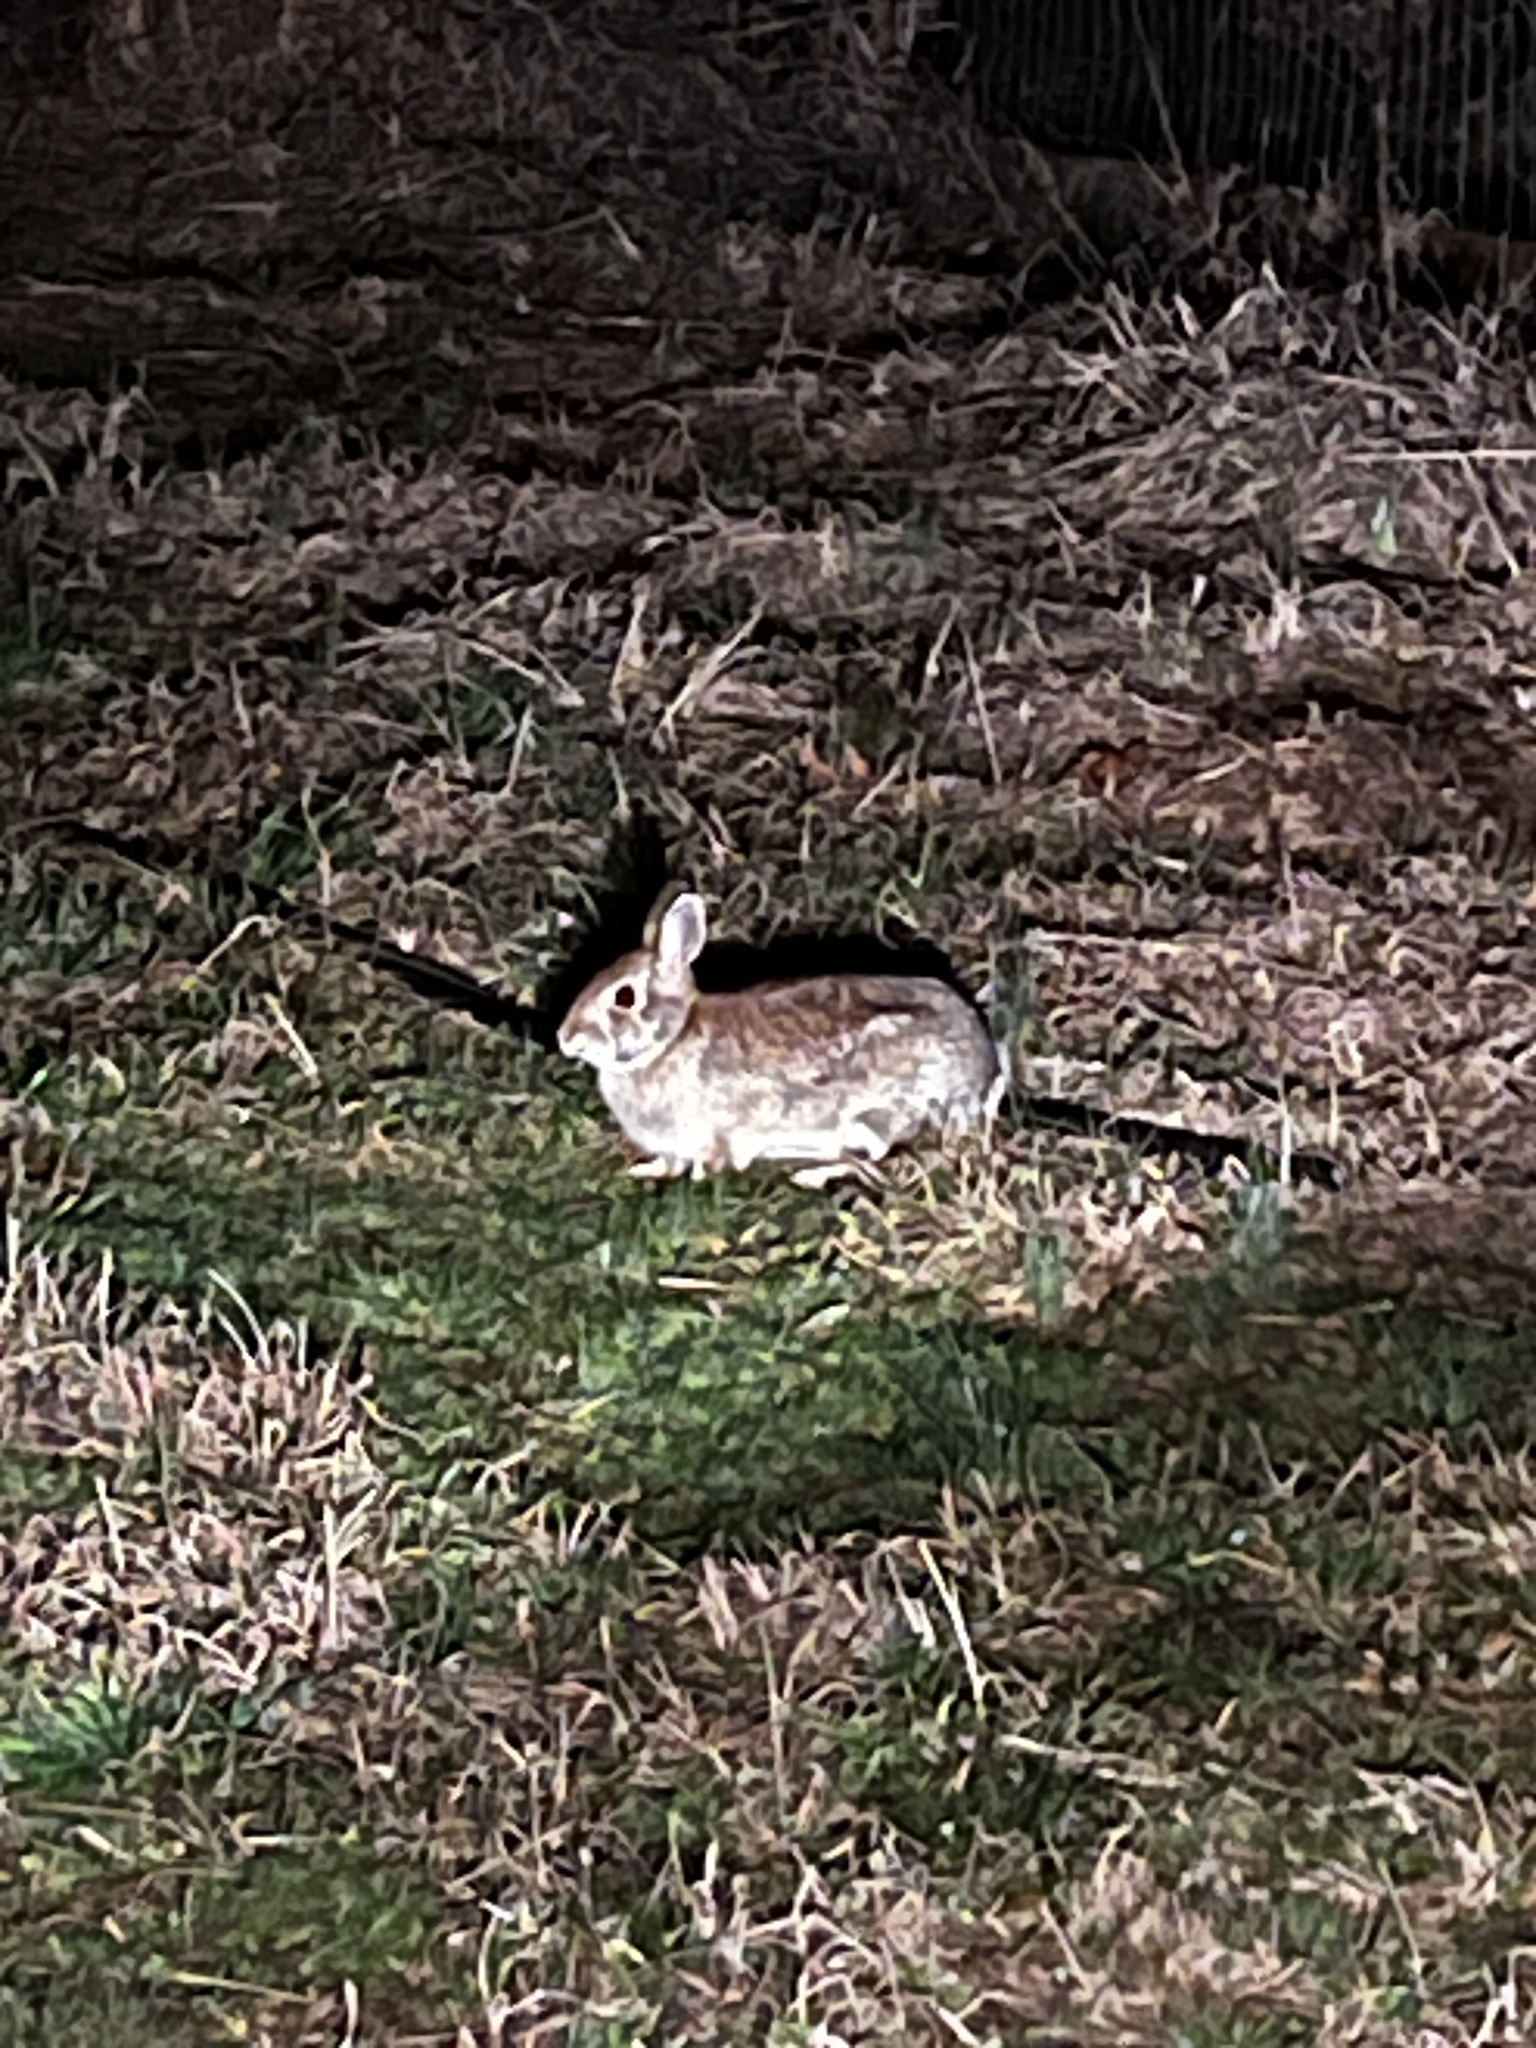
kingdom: Animalia
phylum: Chordata
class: Mammalia
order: Lagomorpha
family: Leporidae
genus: Sylvilagus
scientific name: Sylvilagus floridanus
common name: Eastern cottontail
